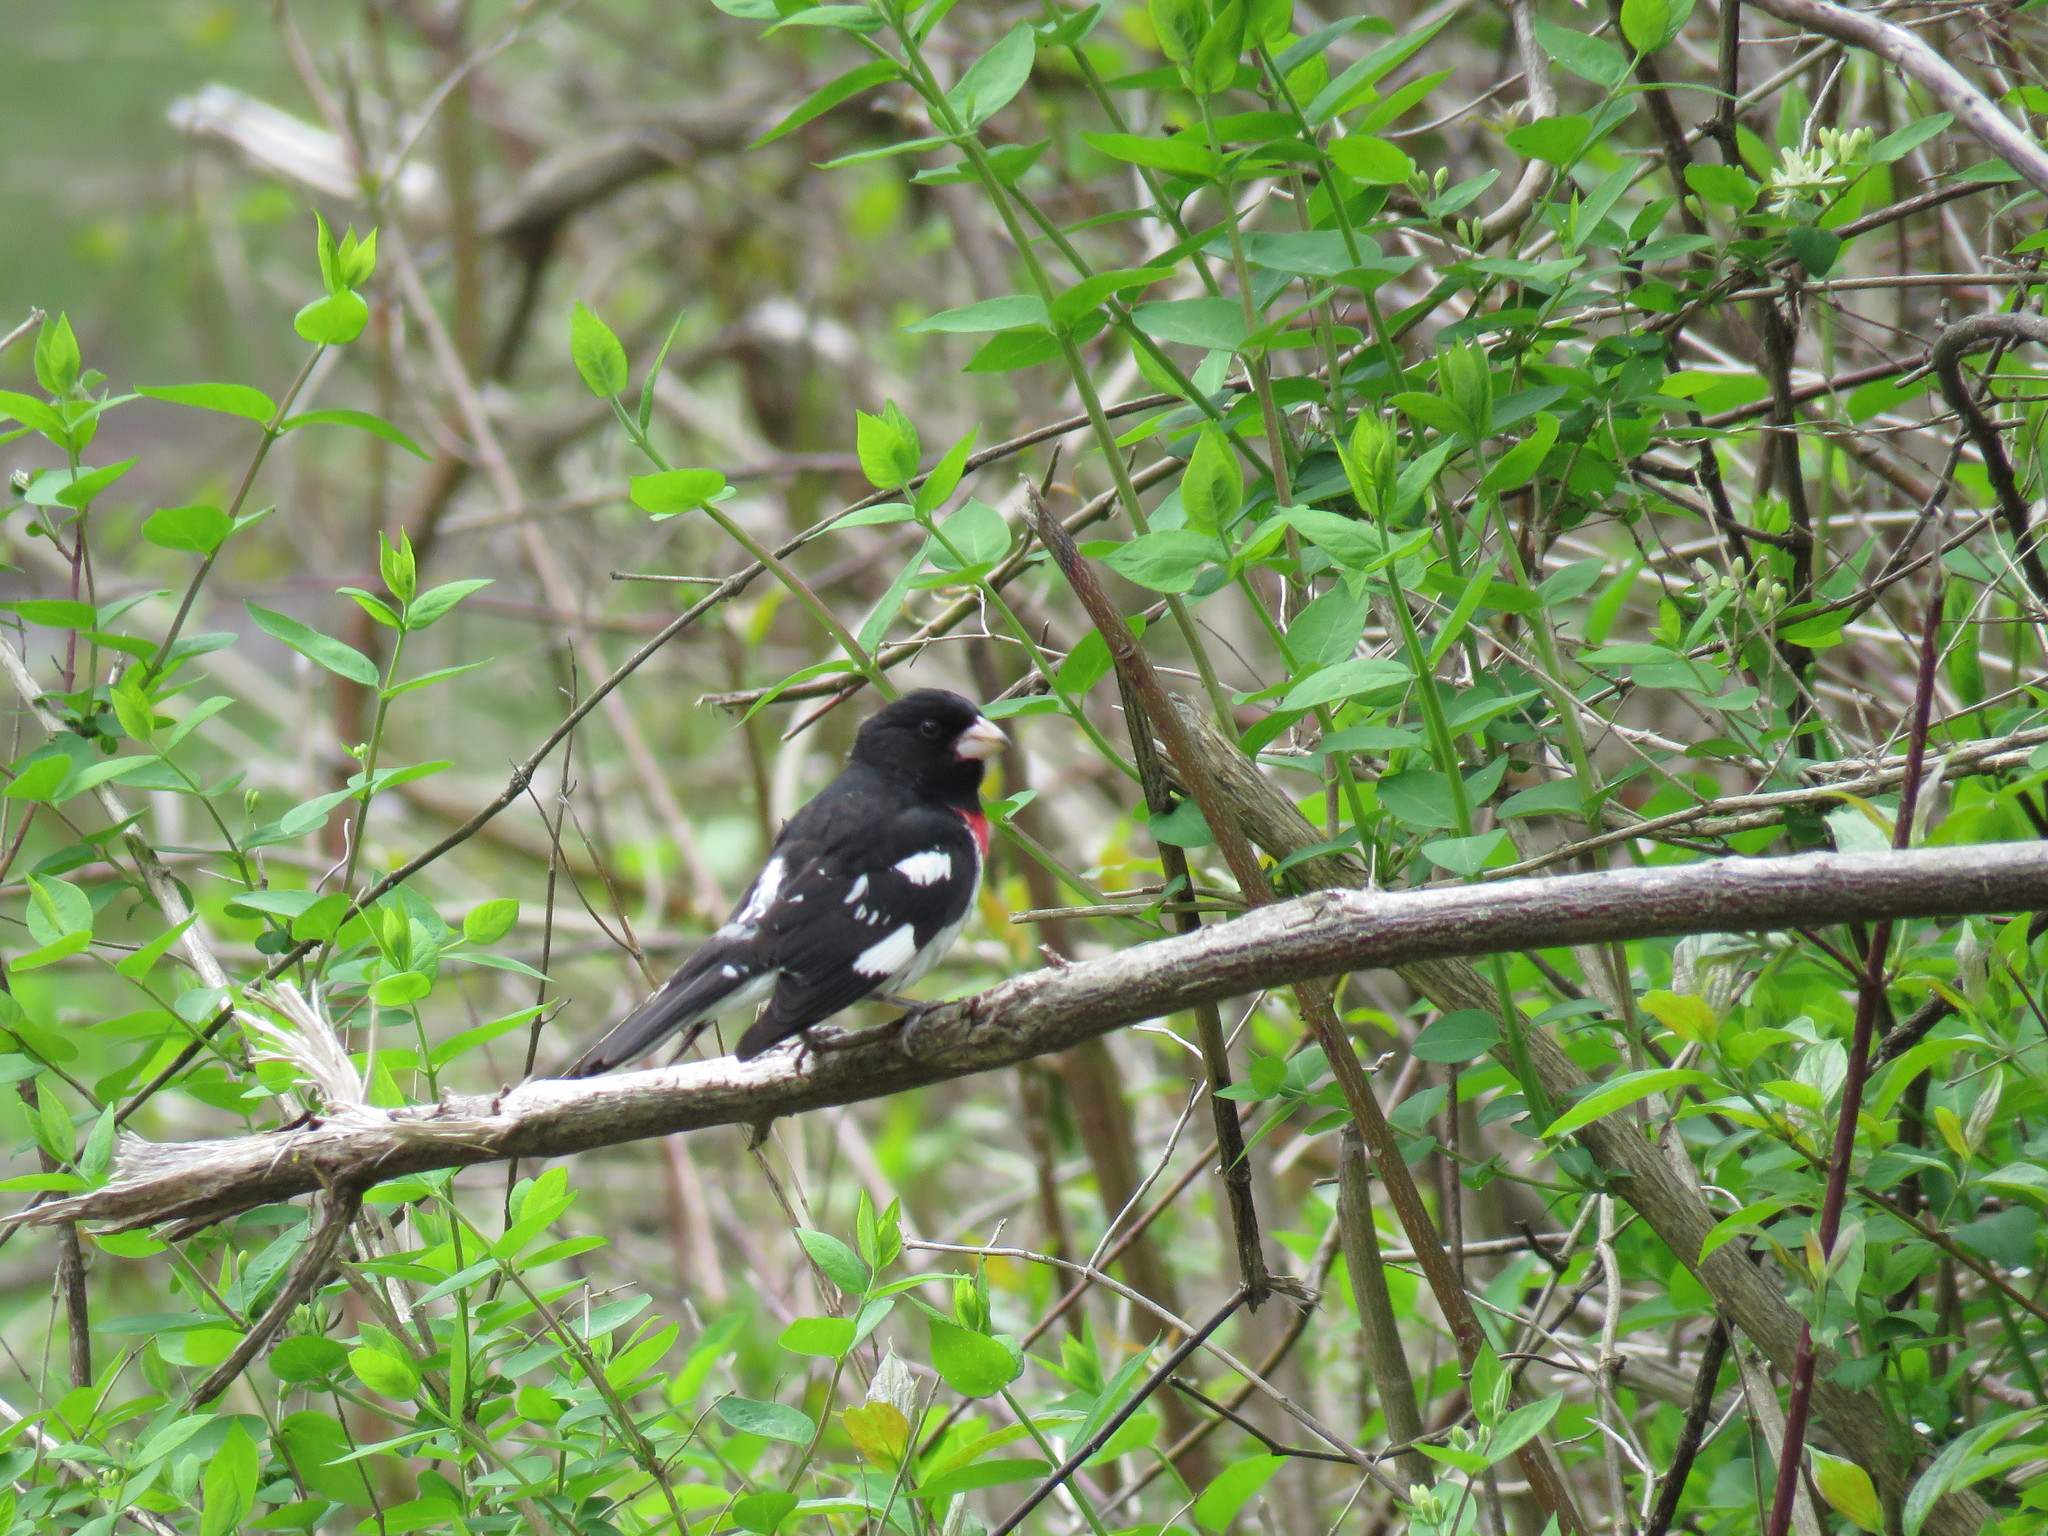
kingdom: Animalia
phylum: Chordata
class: Aves
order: Passeriformes
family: Cardinalidae
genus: Pheucticus
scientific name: Pheucticus ludovicianus
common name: Rose-breasted grosbeak
